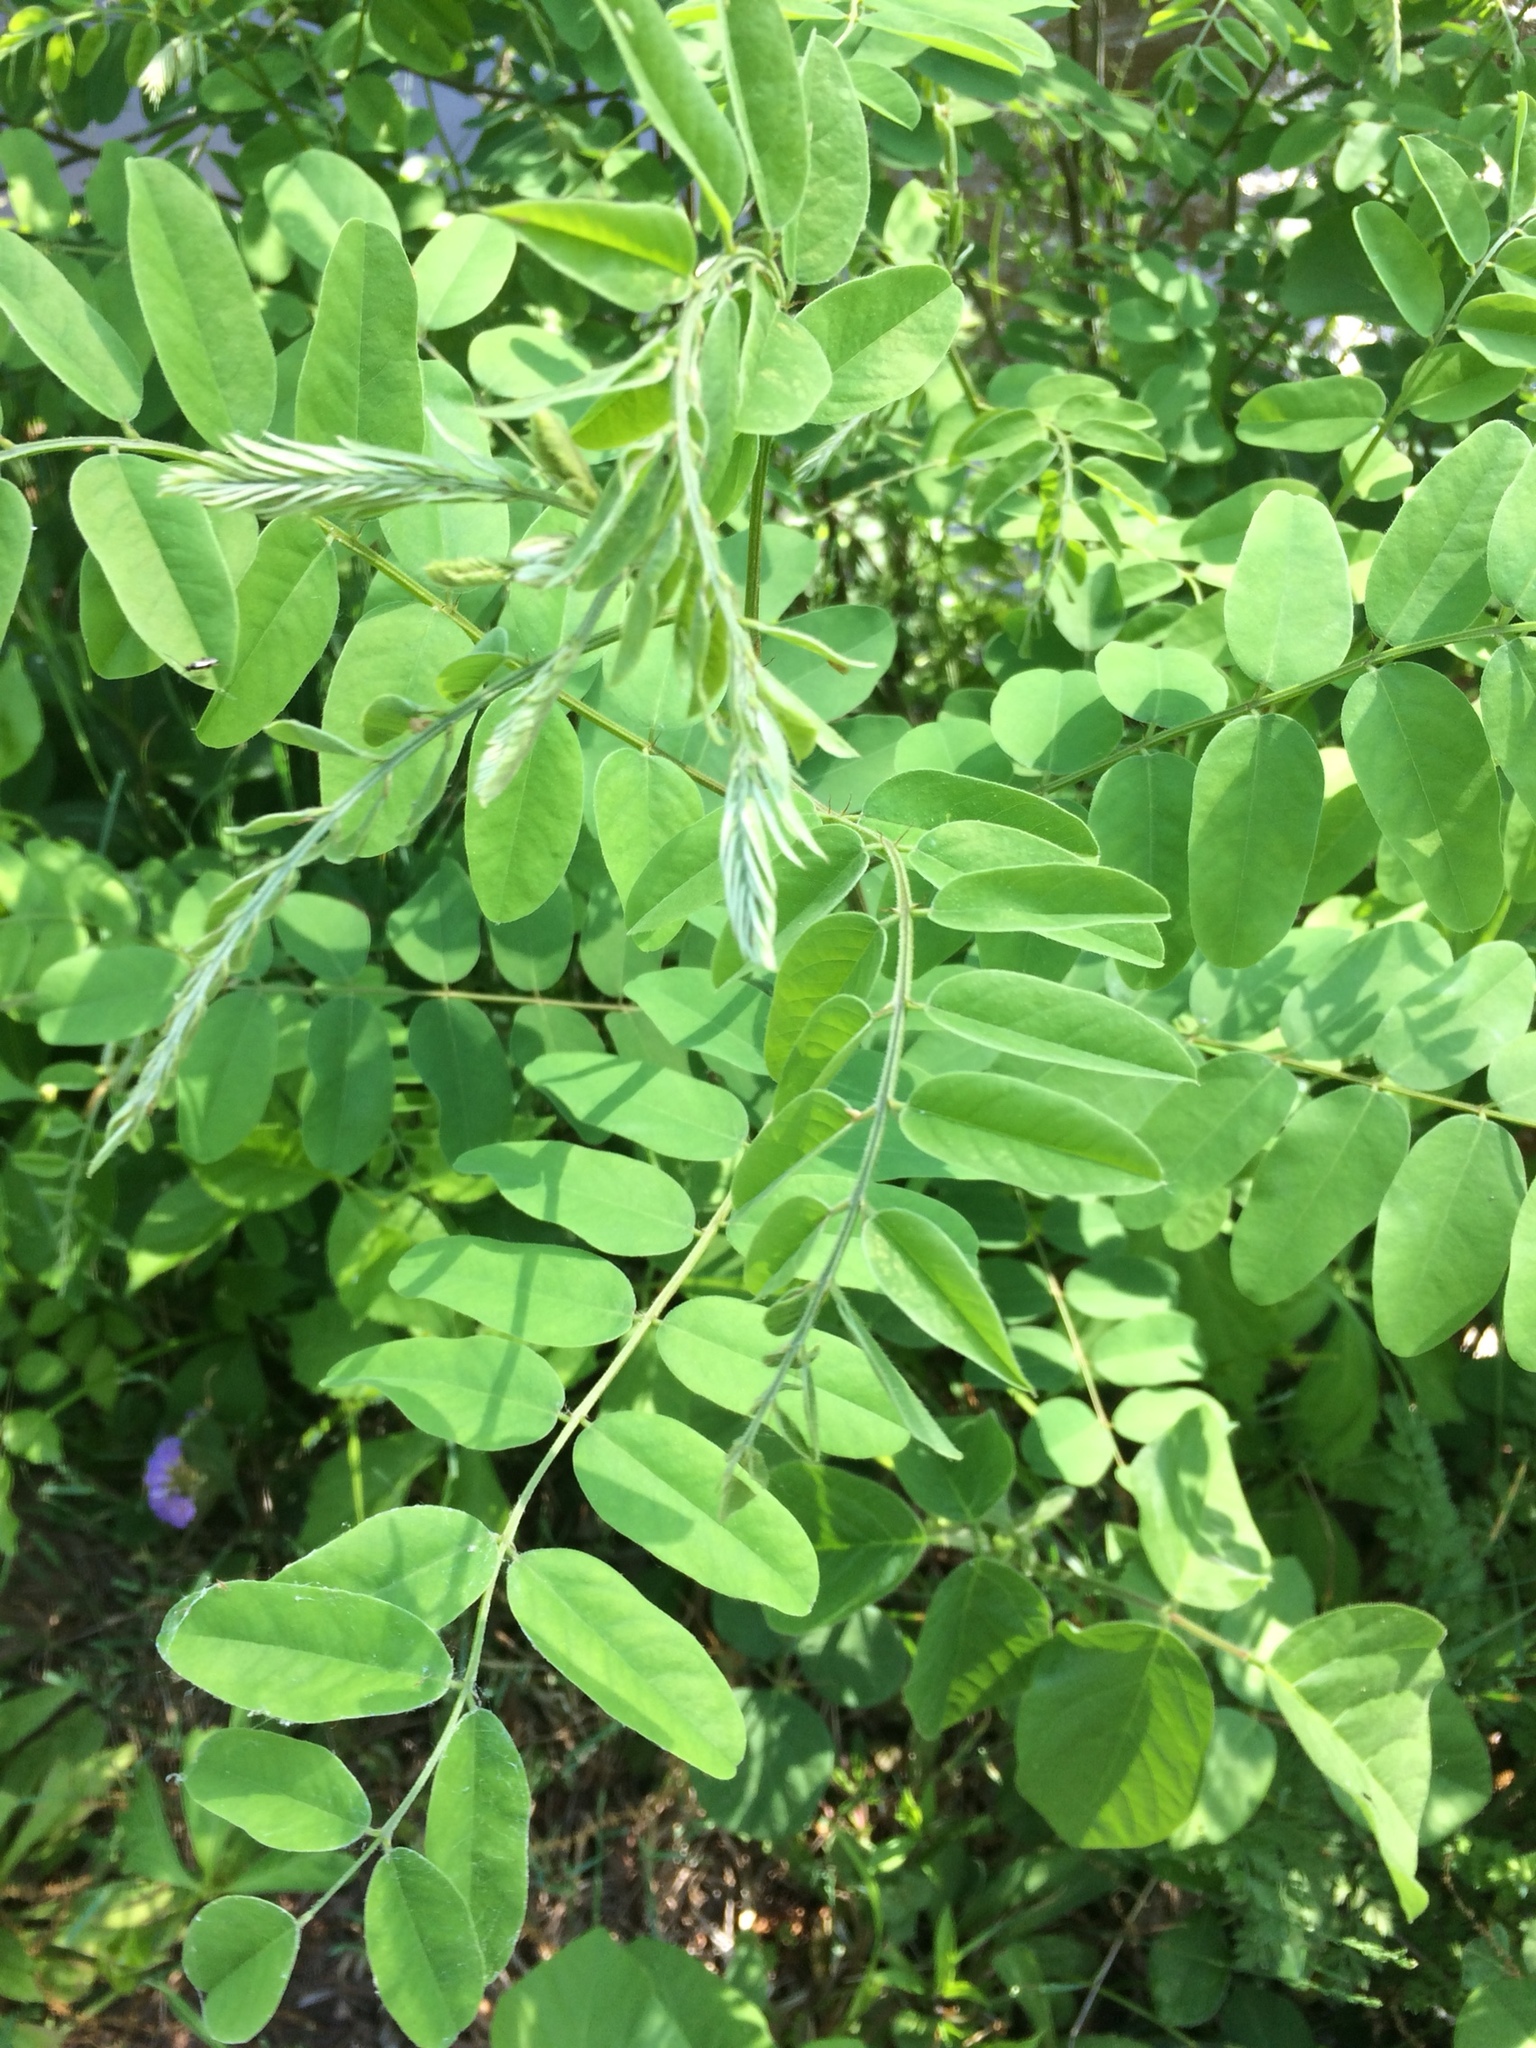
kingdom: Plantae
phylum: Tracheophyta
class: Magnoliopsida
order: Fabales
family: Fabaceae
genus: Amorpha
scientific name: Amorpha fruticosa
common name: False indigo
